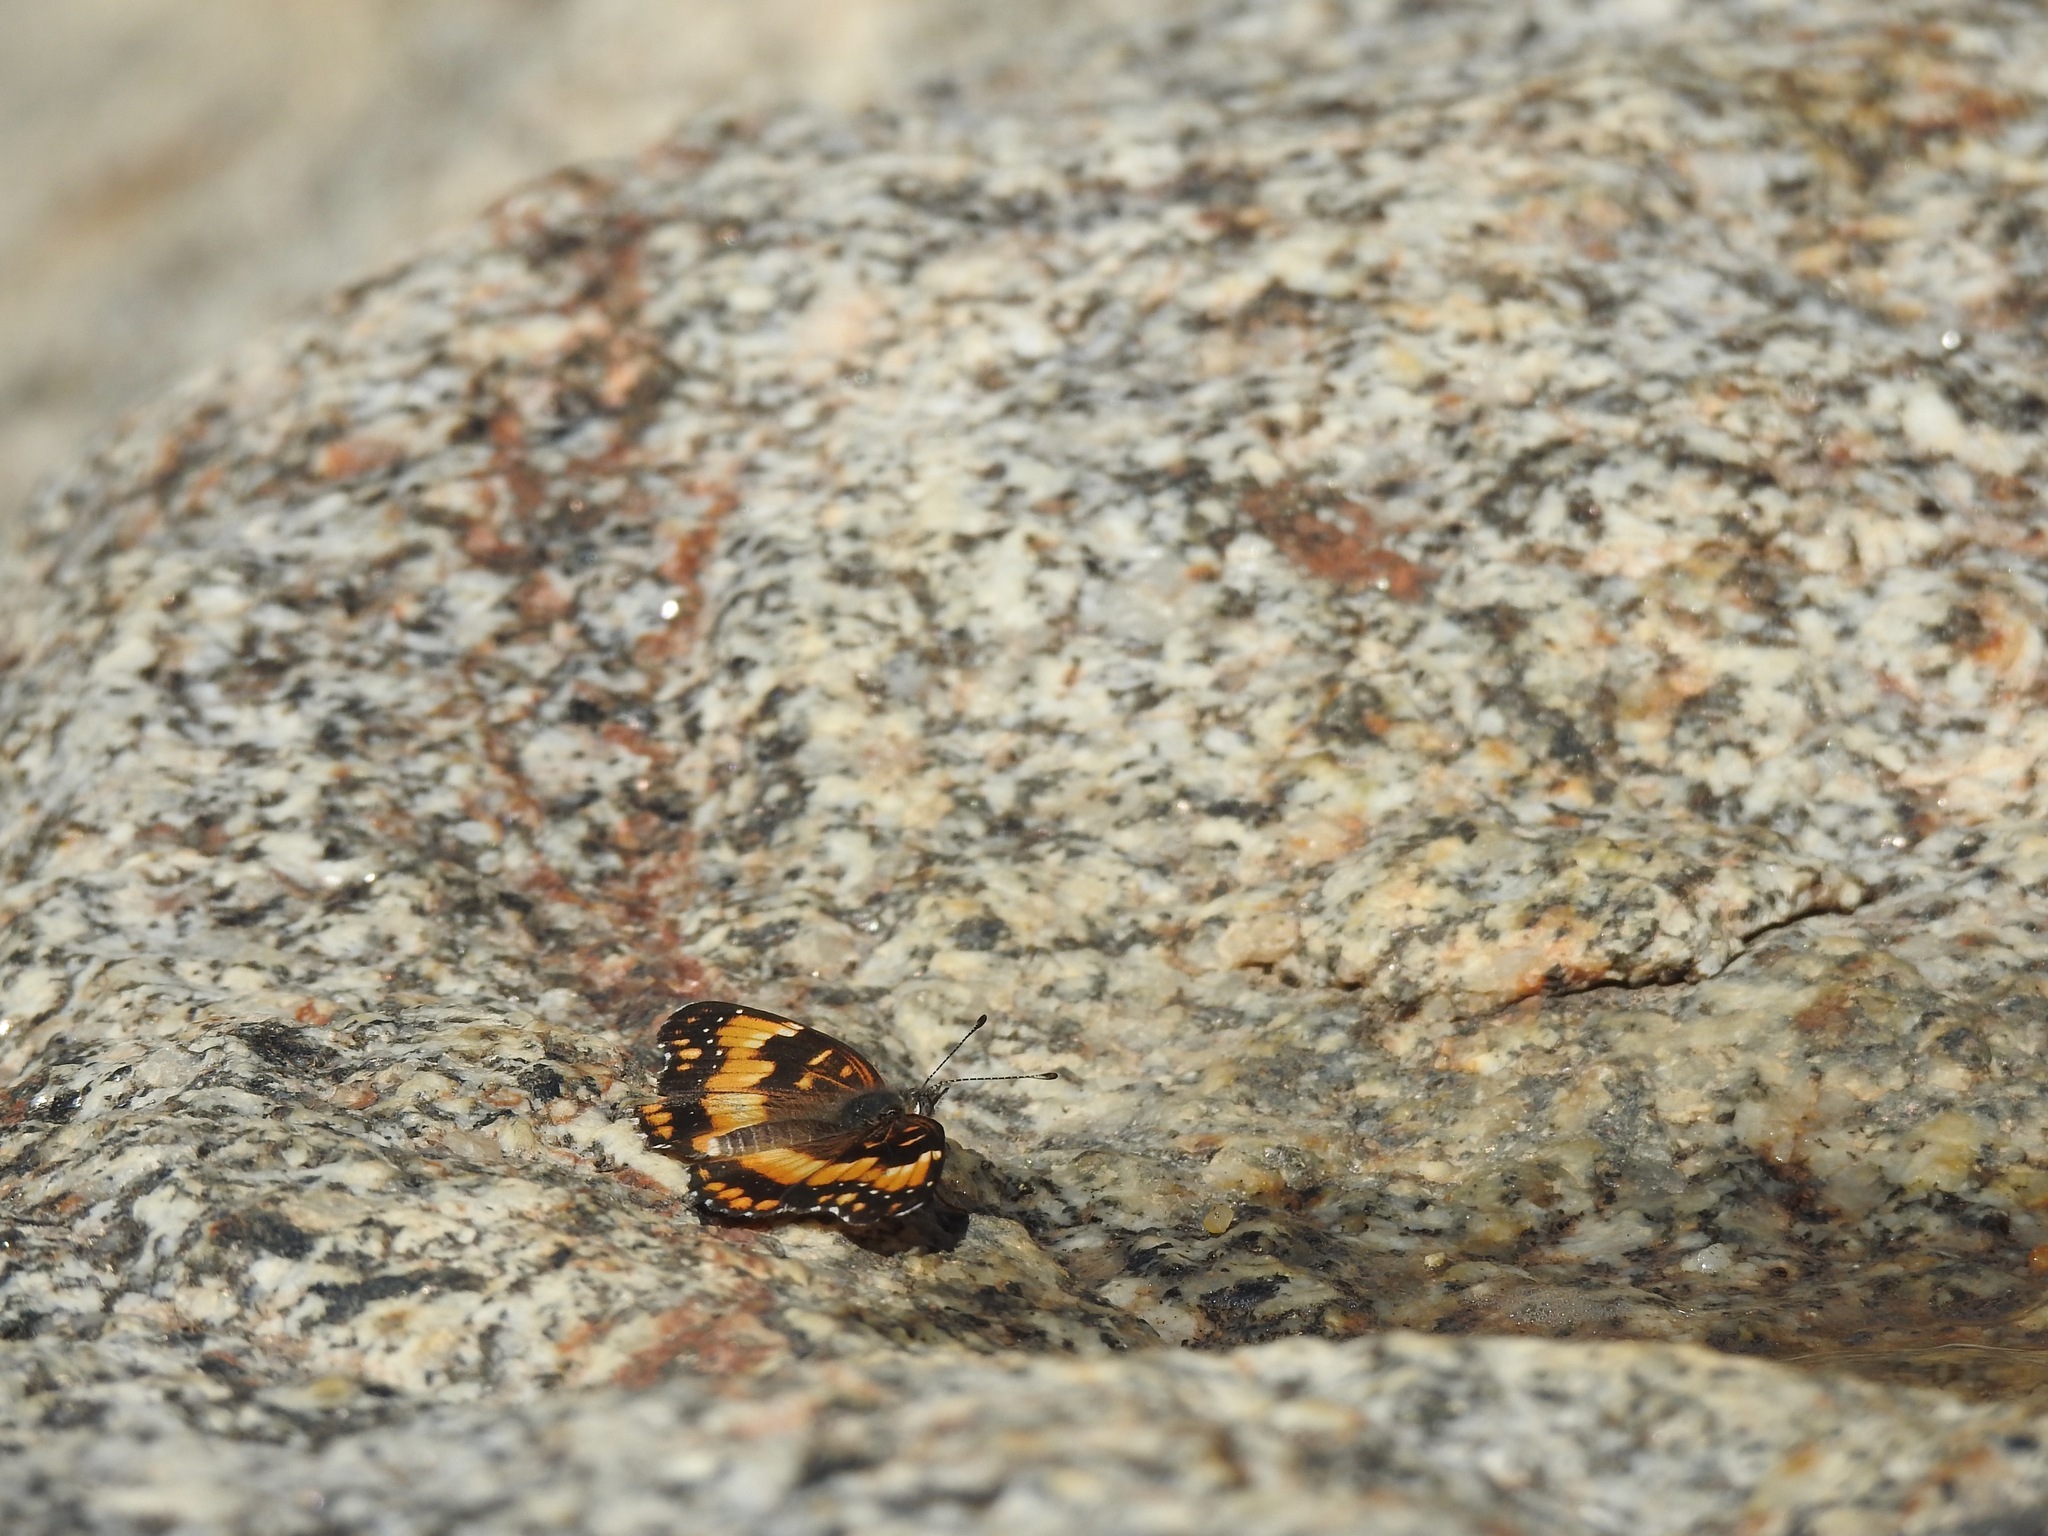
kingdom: Animalia
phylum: Arthropoda
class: Insecta
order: Lepidoptera
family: Nymphalidae
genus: Chlosyne
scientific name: Chlosyne californica
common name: California patch
